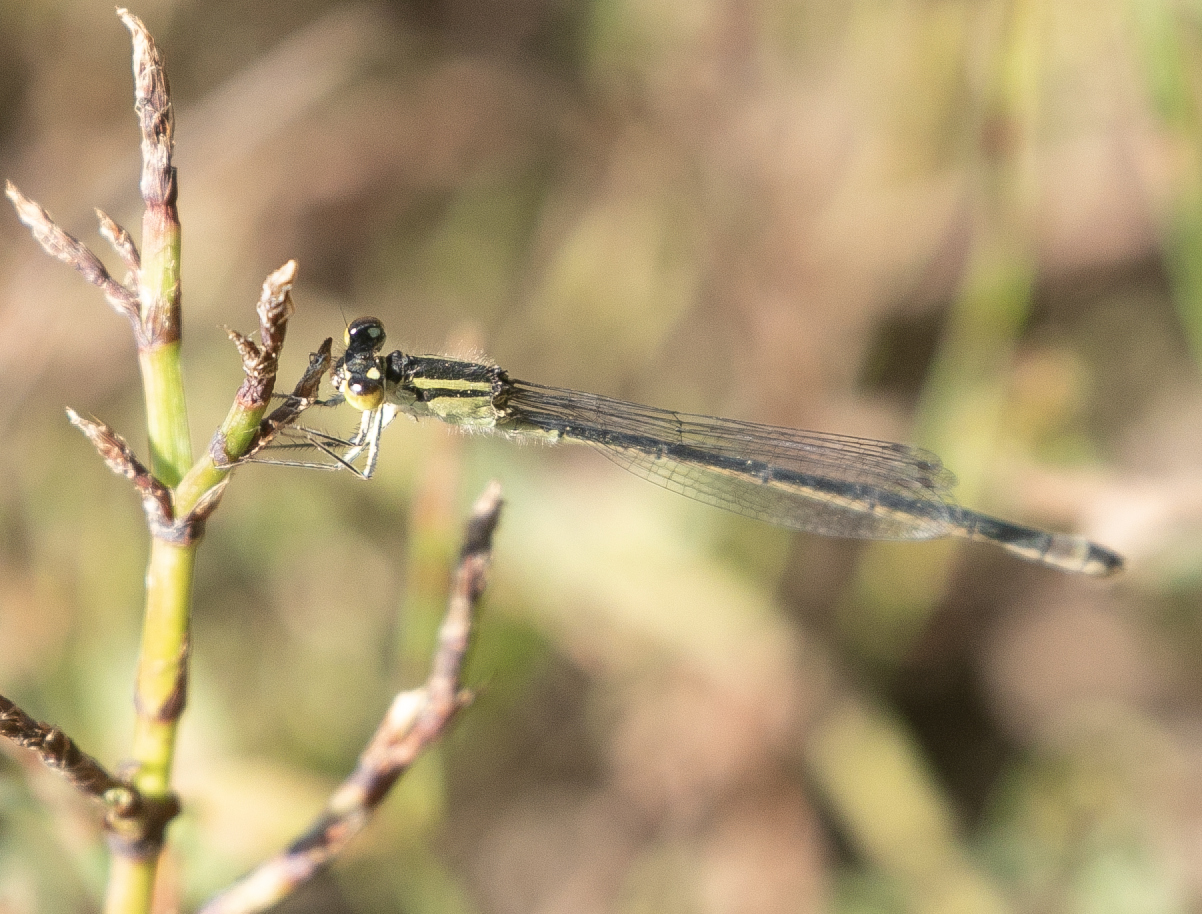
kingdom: Animalia
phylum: Arthropoda
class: Insecta
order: Odonata
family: Coenagrionidae
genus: Ischnura
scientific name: Ischnura elegans
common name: Blue-tailed damselfly
